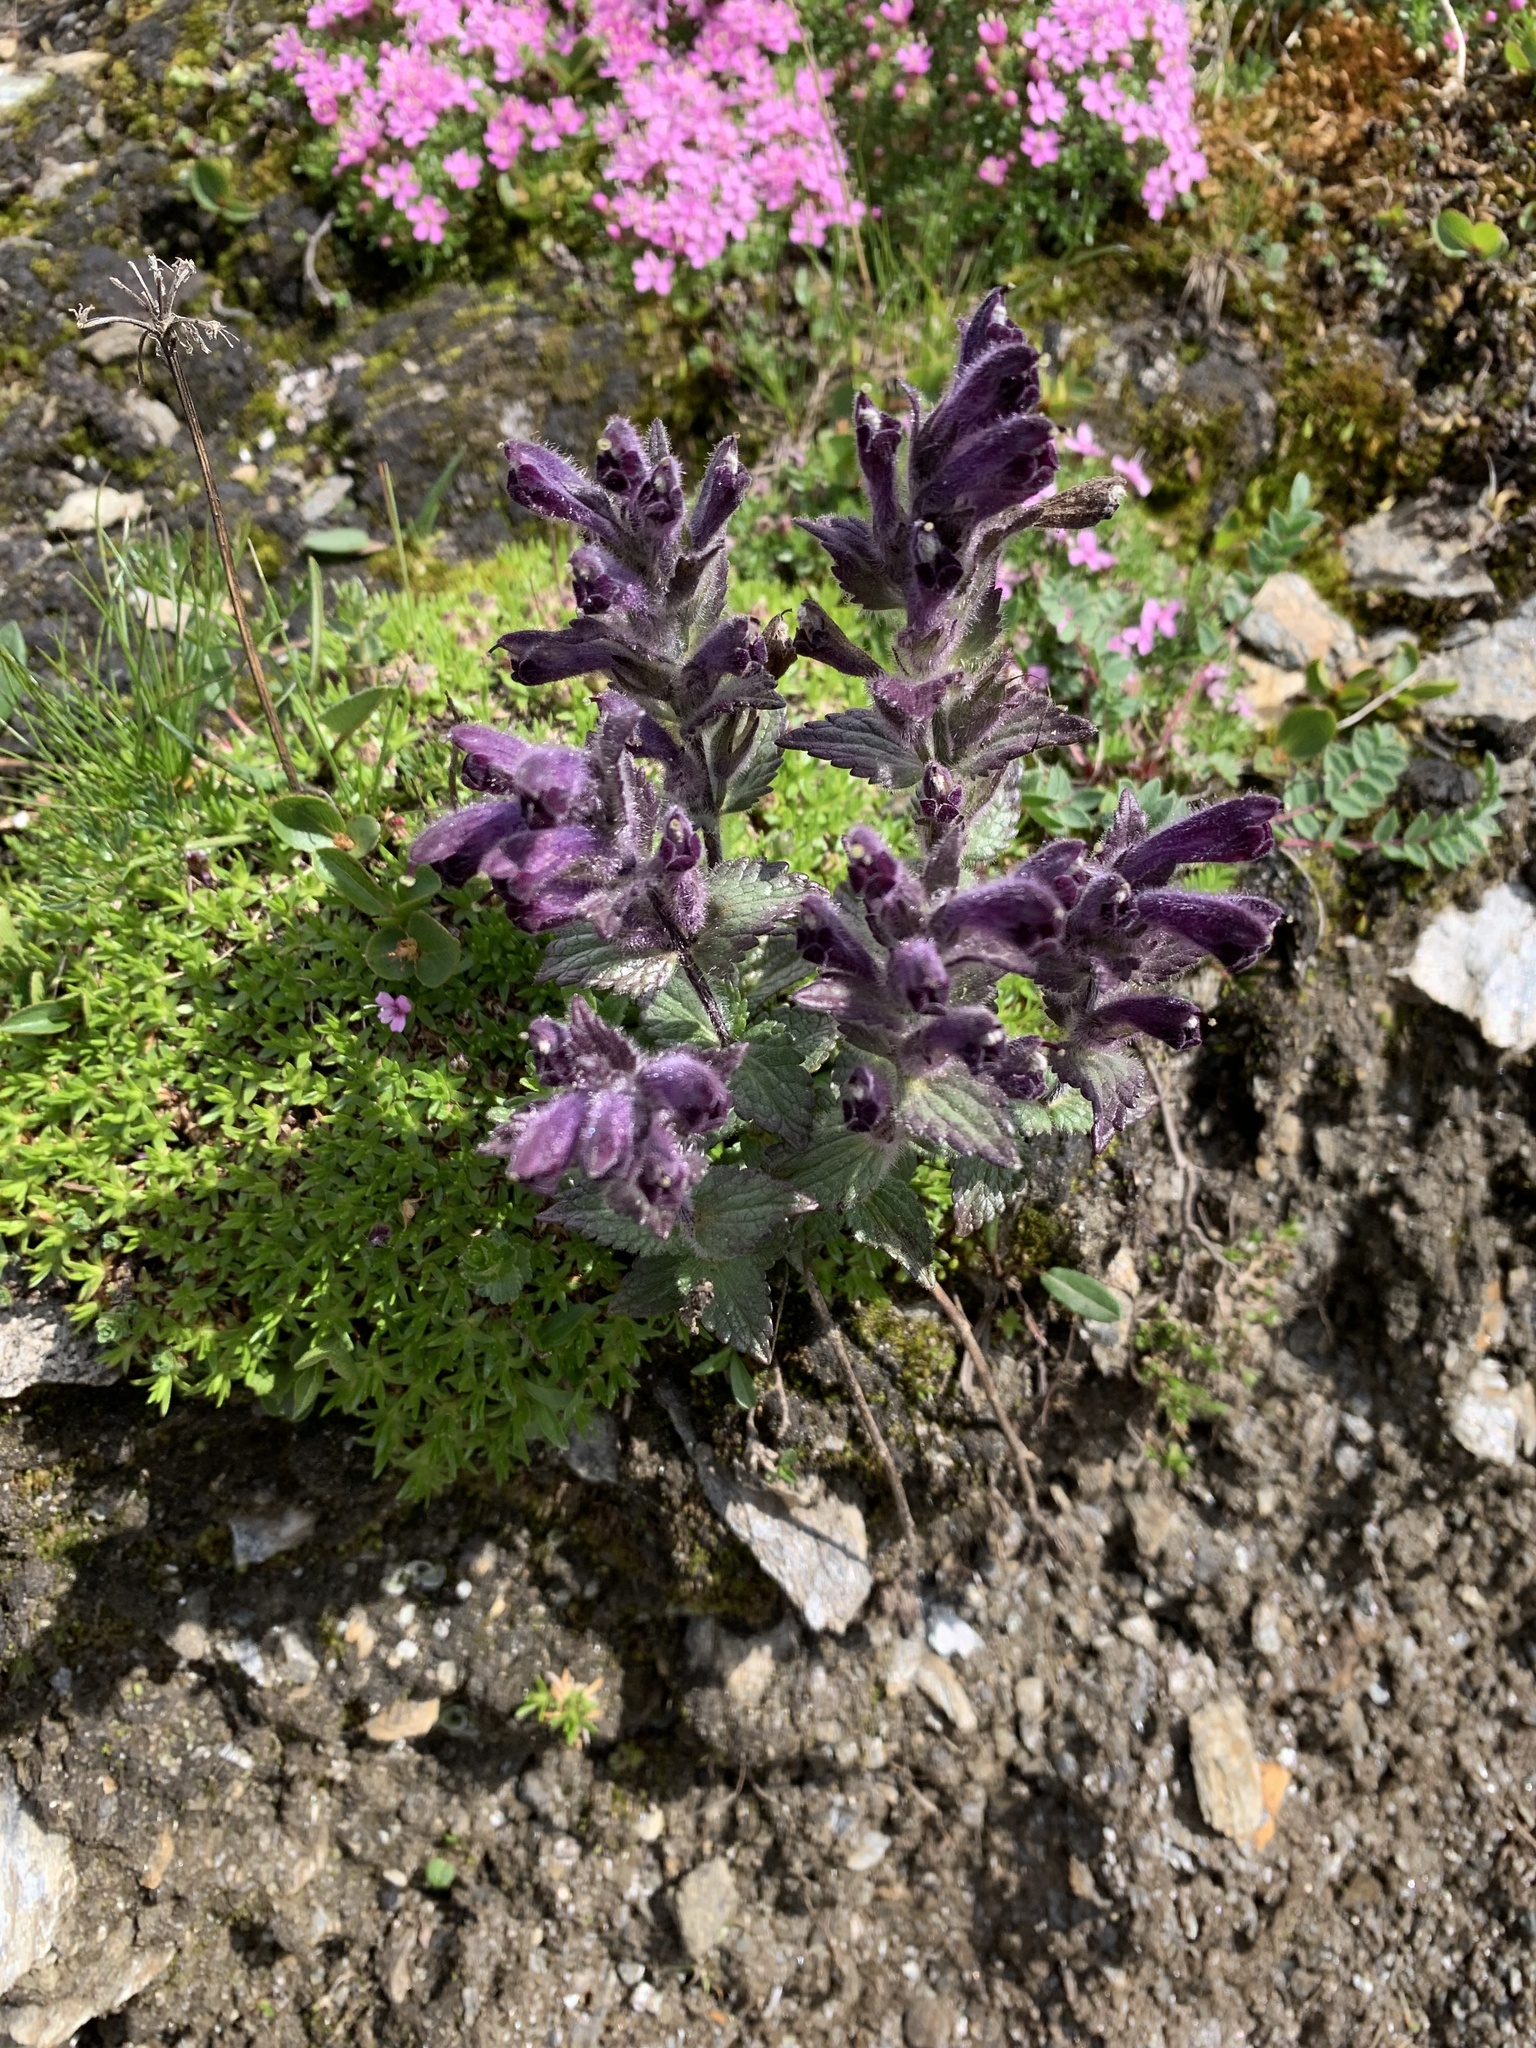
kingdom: Plantae
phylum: Tracheophyta
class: Magnoliopsida
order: Lamiales
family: Orobanchaceae
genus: Bartsia
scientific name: Bartsia alpina
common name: Alpine bartsia
